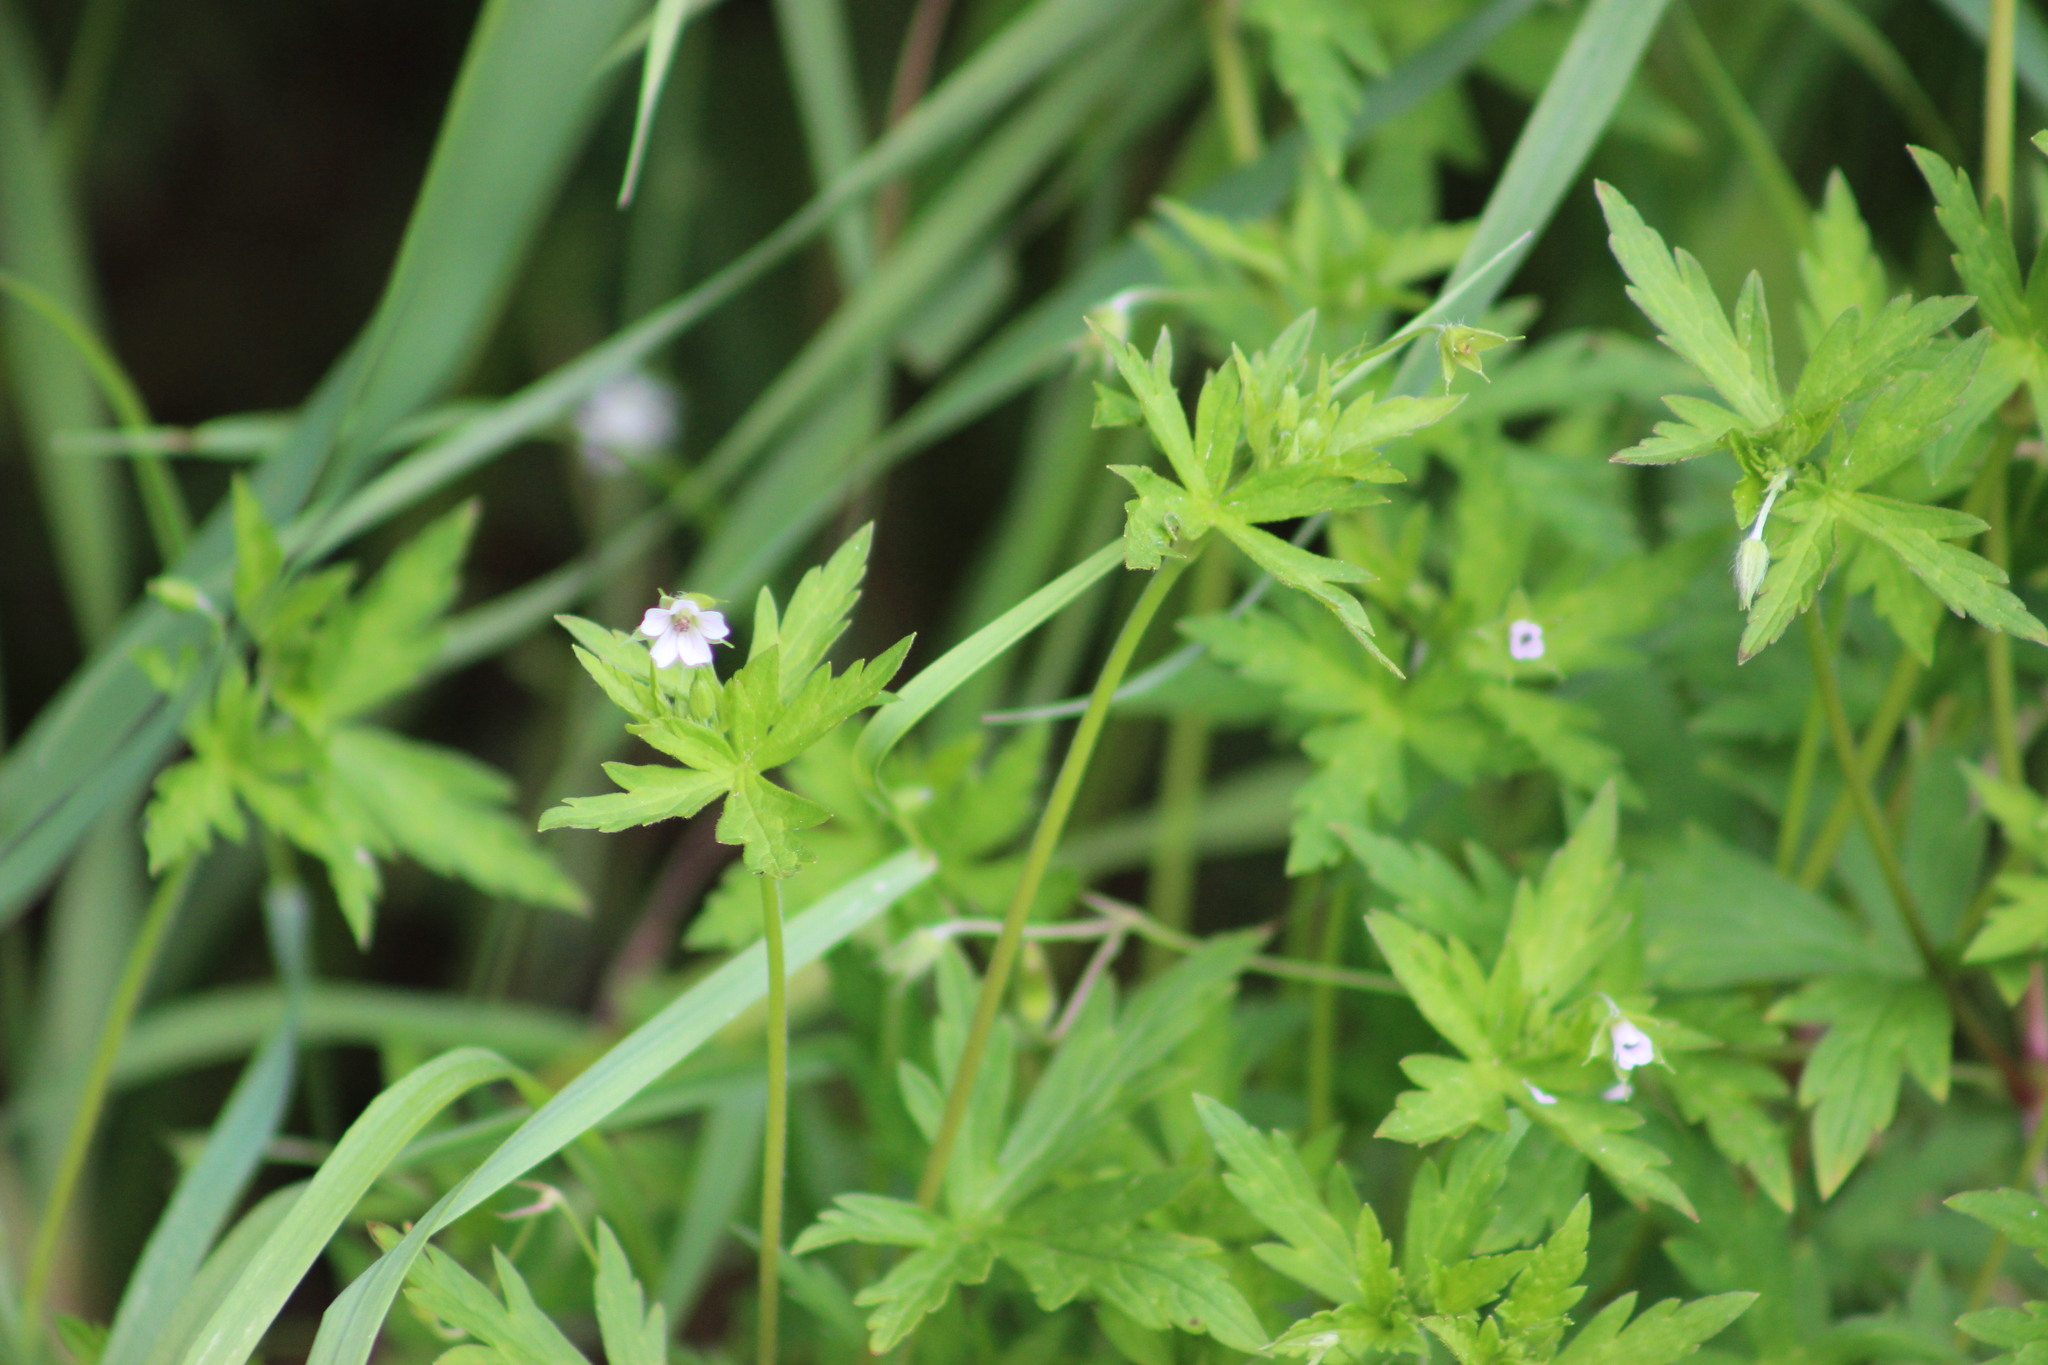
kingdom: Plantae
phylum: Tracheophyta
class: Magnoliopsida
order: Geraniales
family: Geraniaceae
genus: Geranium
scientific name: Geranium sibiricum
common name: Siberian crane's-bill
